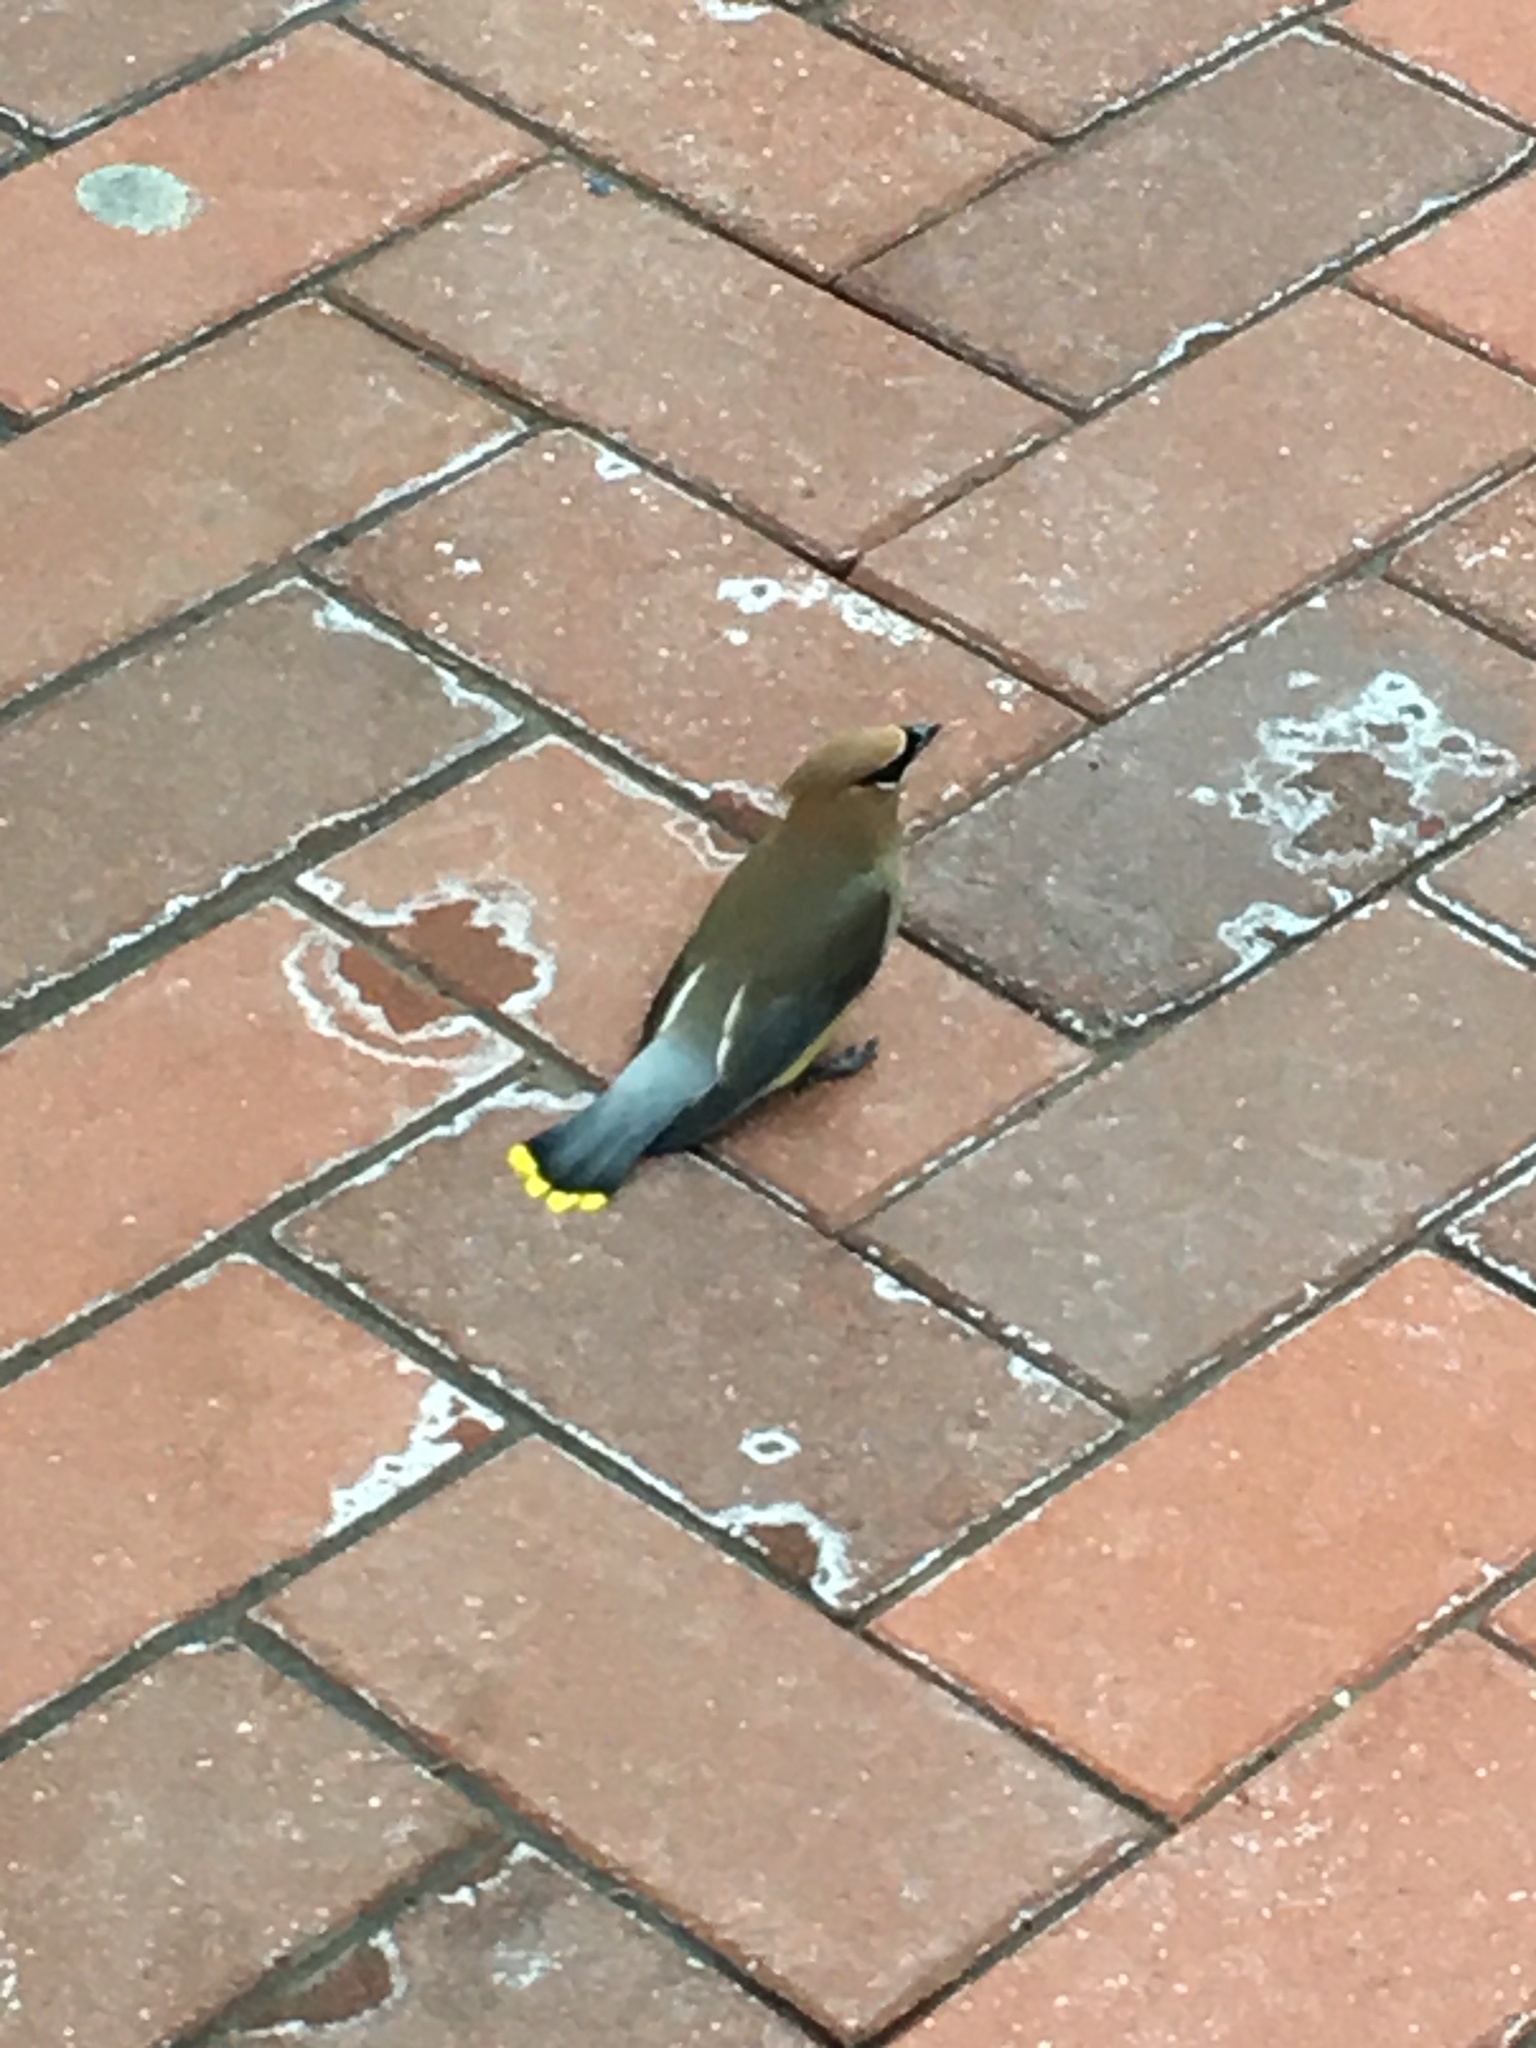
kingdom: Animalia
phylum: Chordata
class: Aves
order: Passeriformes
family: Bombycillidae
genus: Bombycilla
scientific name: Bombycilla cedrorum
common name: Cedar waxwing
